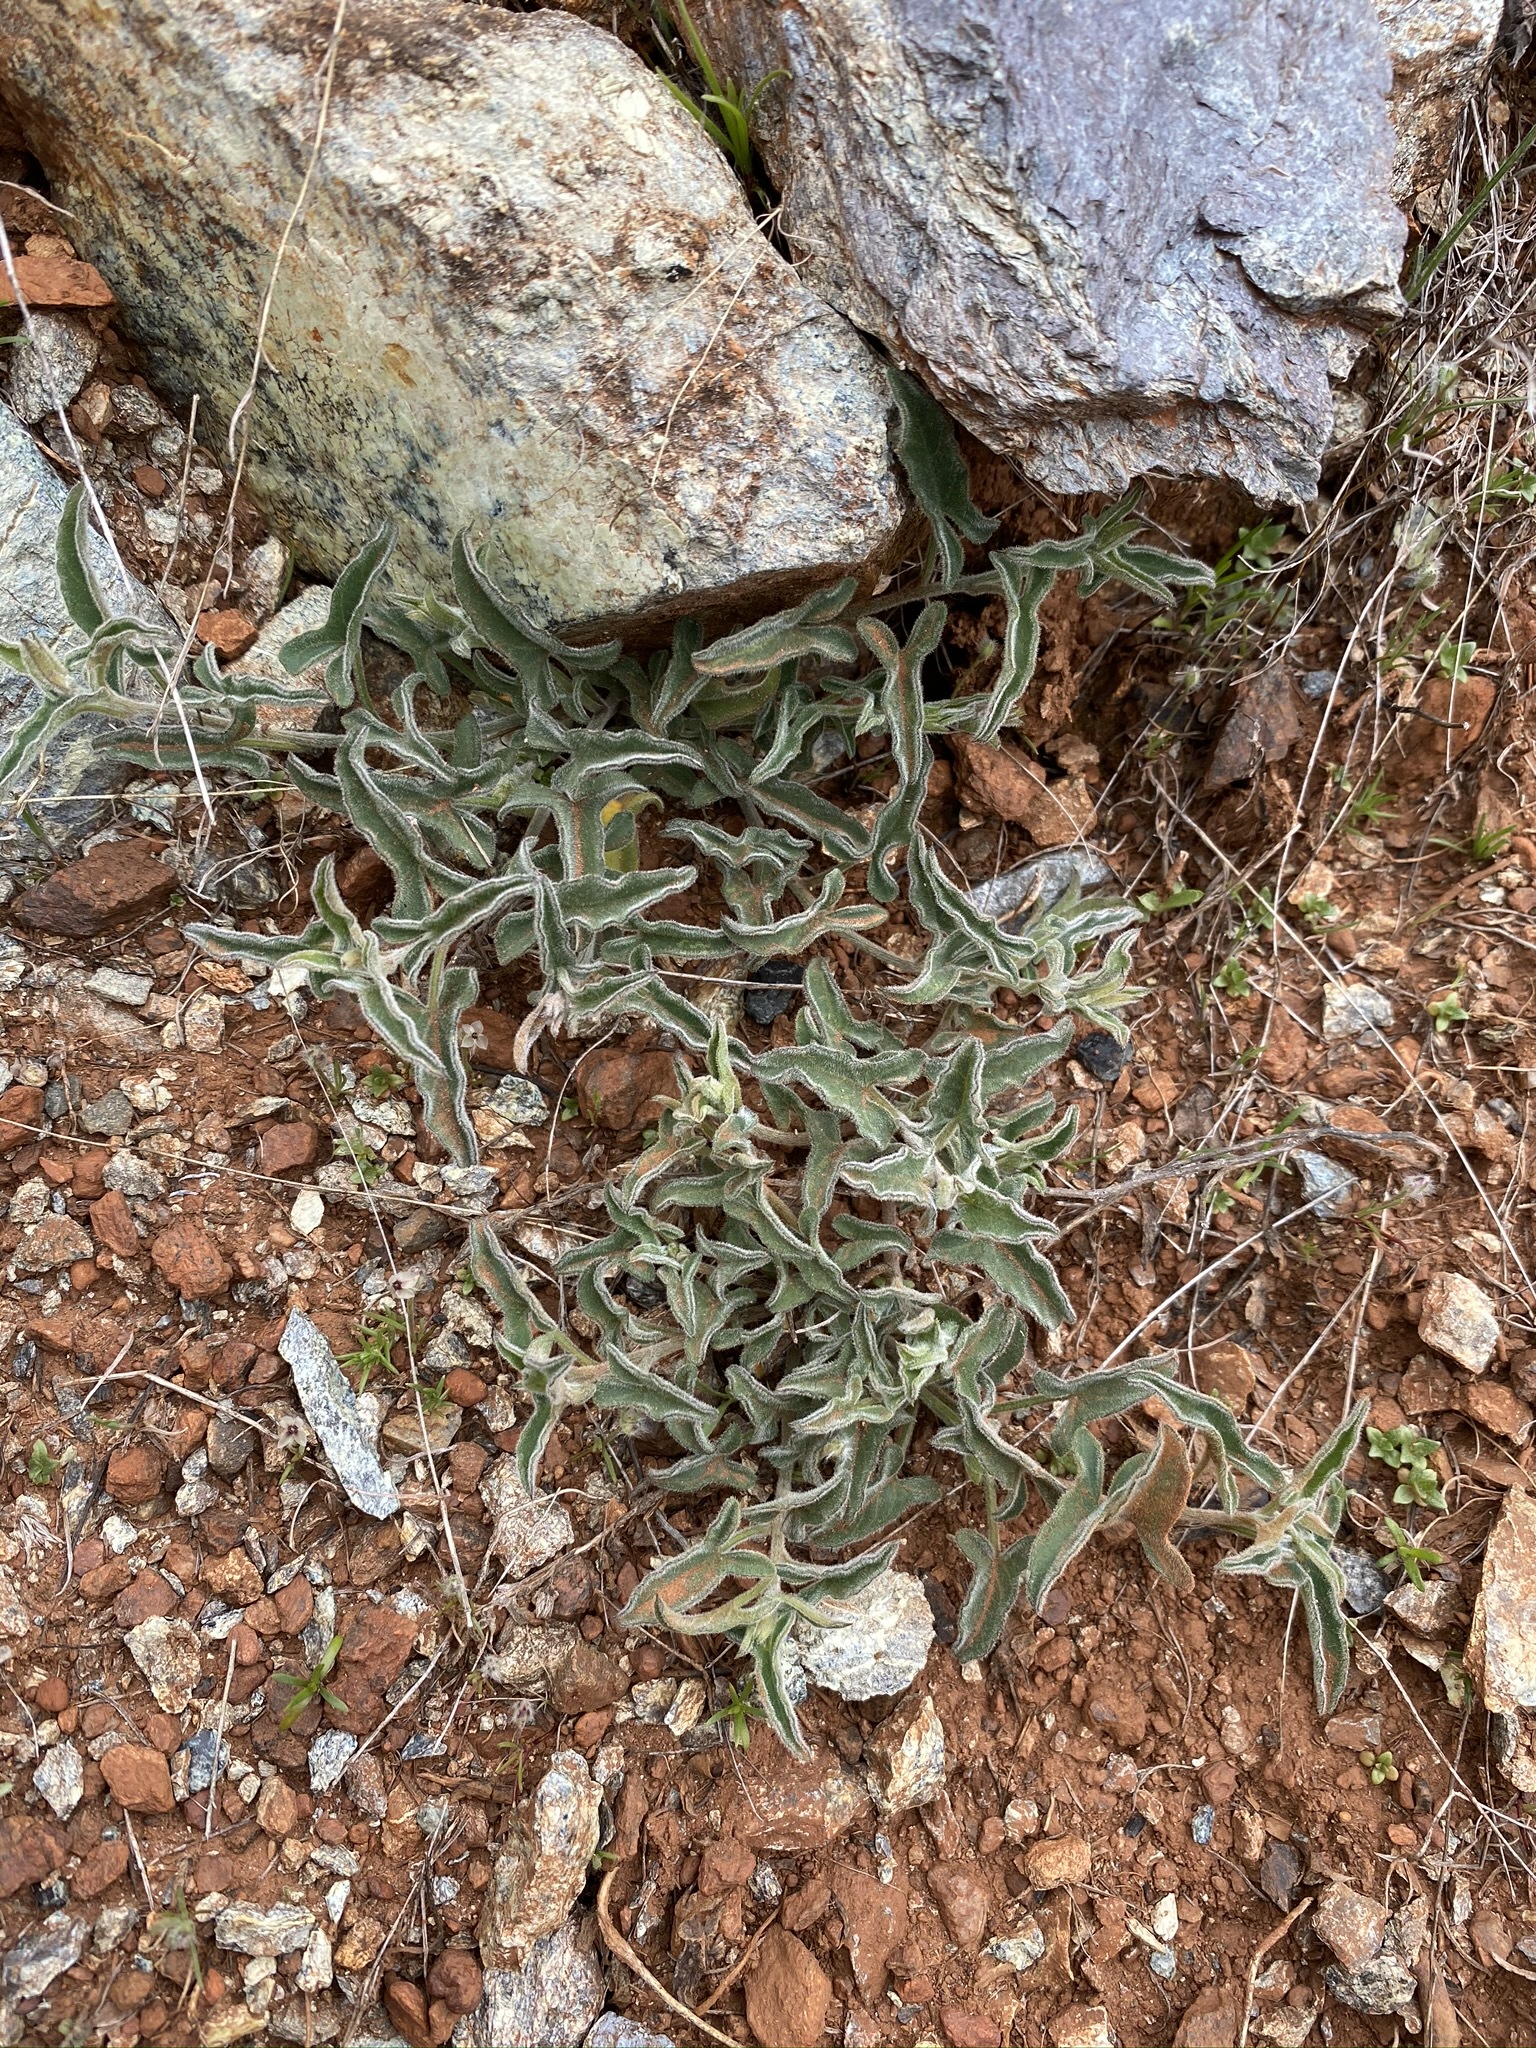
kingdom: Plantae
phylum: Tracheophyta
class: Magnoliopsida
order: Solanales
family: Convolvulaceae
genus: Calystegia
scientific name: Calystegia vanzuukiae
